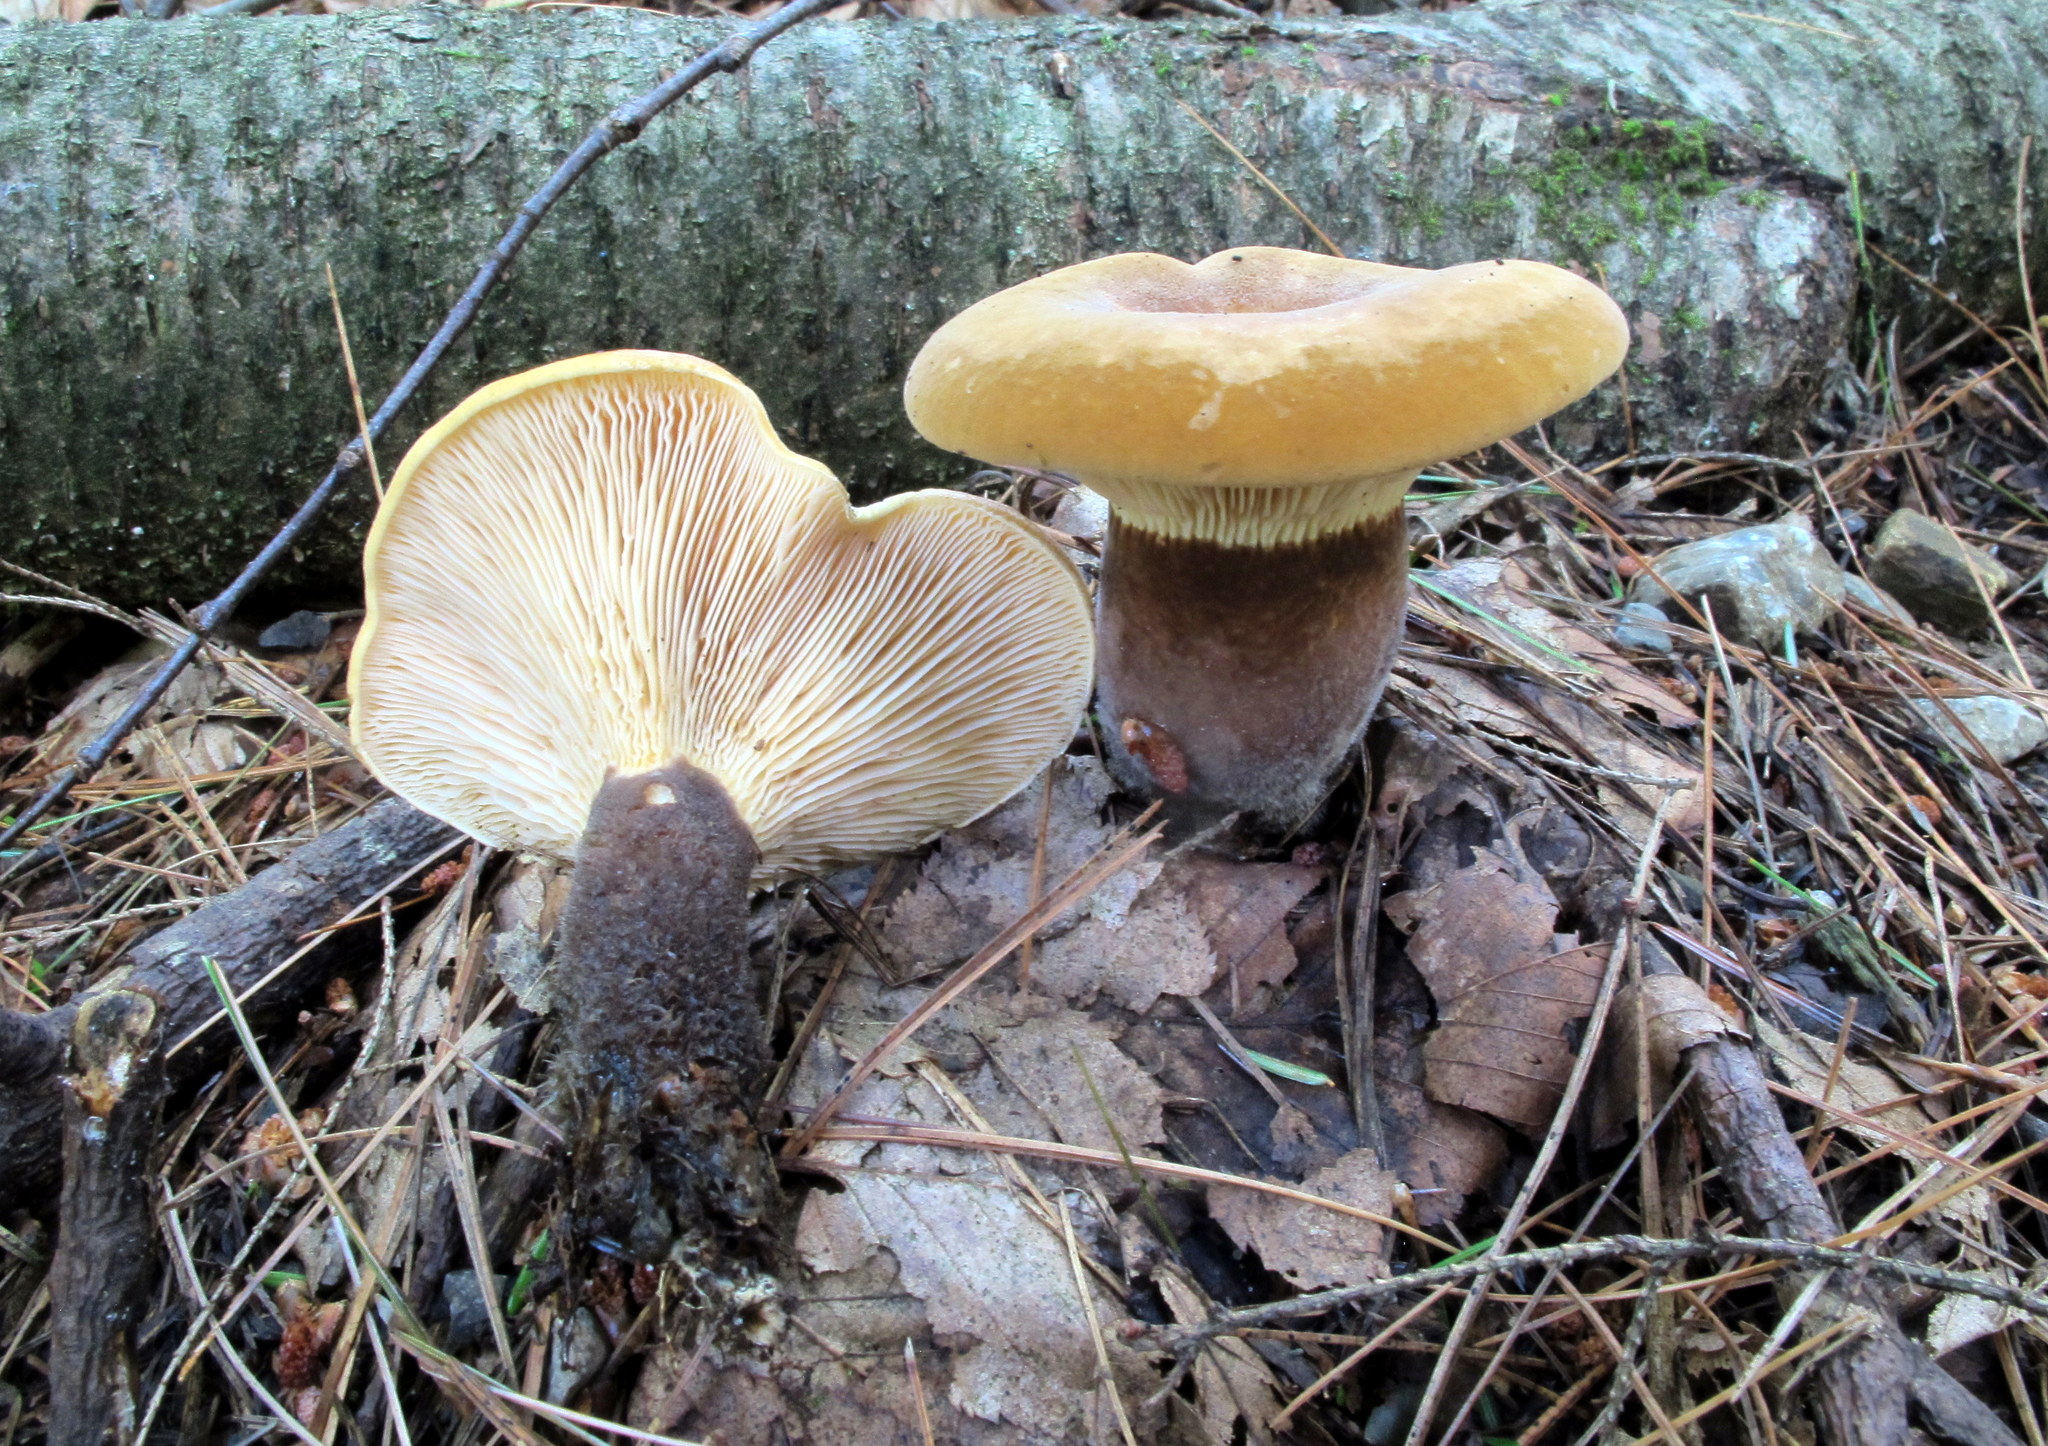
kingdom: Fungi
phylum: Basidiomycota
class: Agaricomycetes
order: Boletales
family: Tapinellaceae
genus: Tapinella
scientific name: Tapinella atrotomentosa
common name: Velvet rollrim
